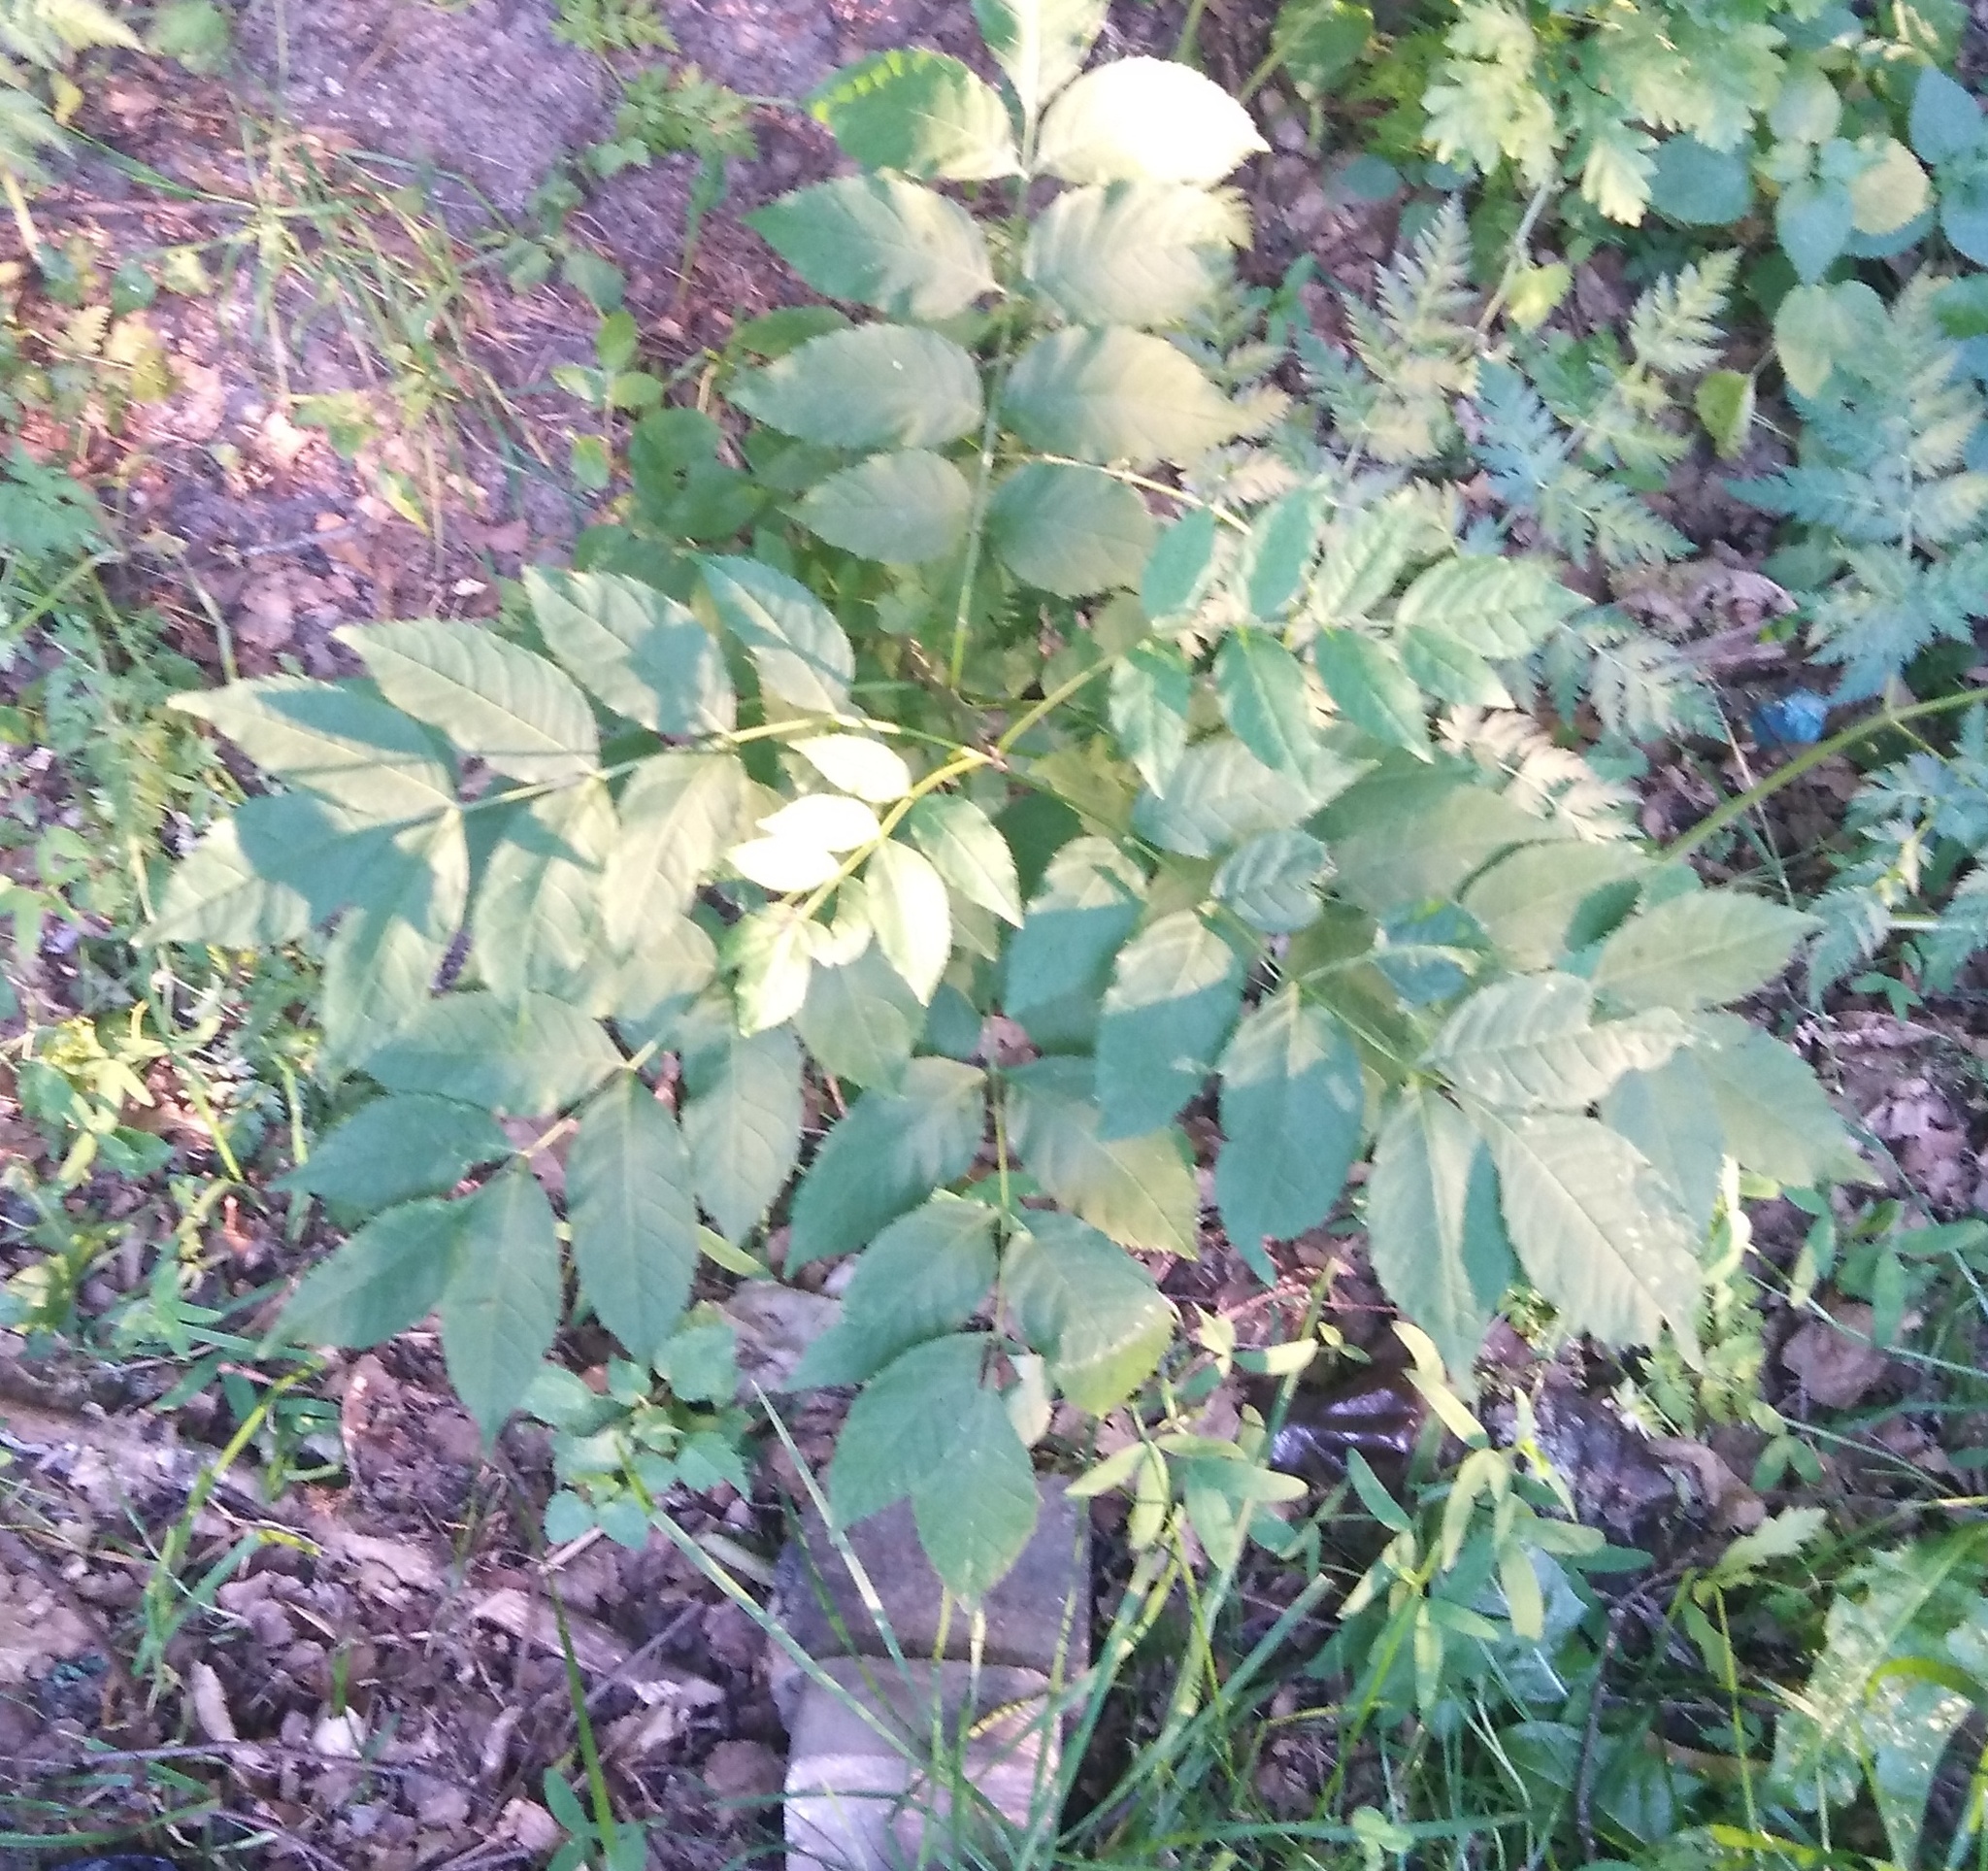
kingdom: Plantae
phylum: Tracheophyta
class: Magnoliopsida
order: Lamiales
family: Oleaceae
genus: Fraxinus
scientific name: Fraxinus excelsior
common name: European ash
